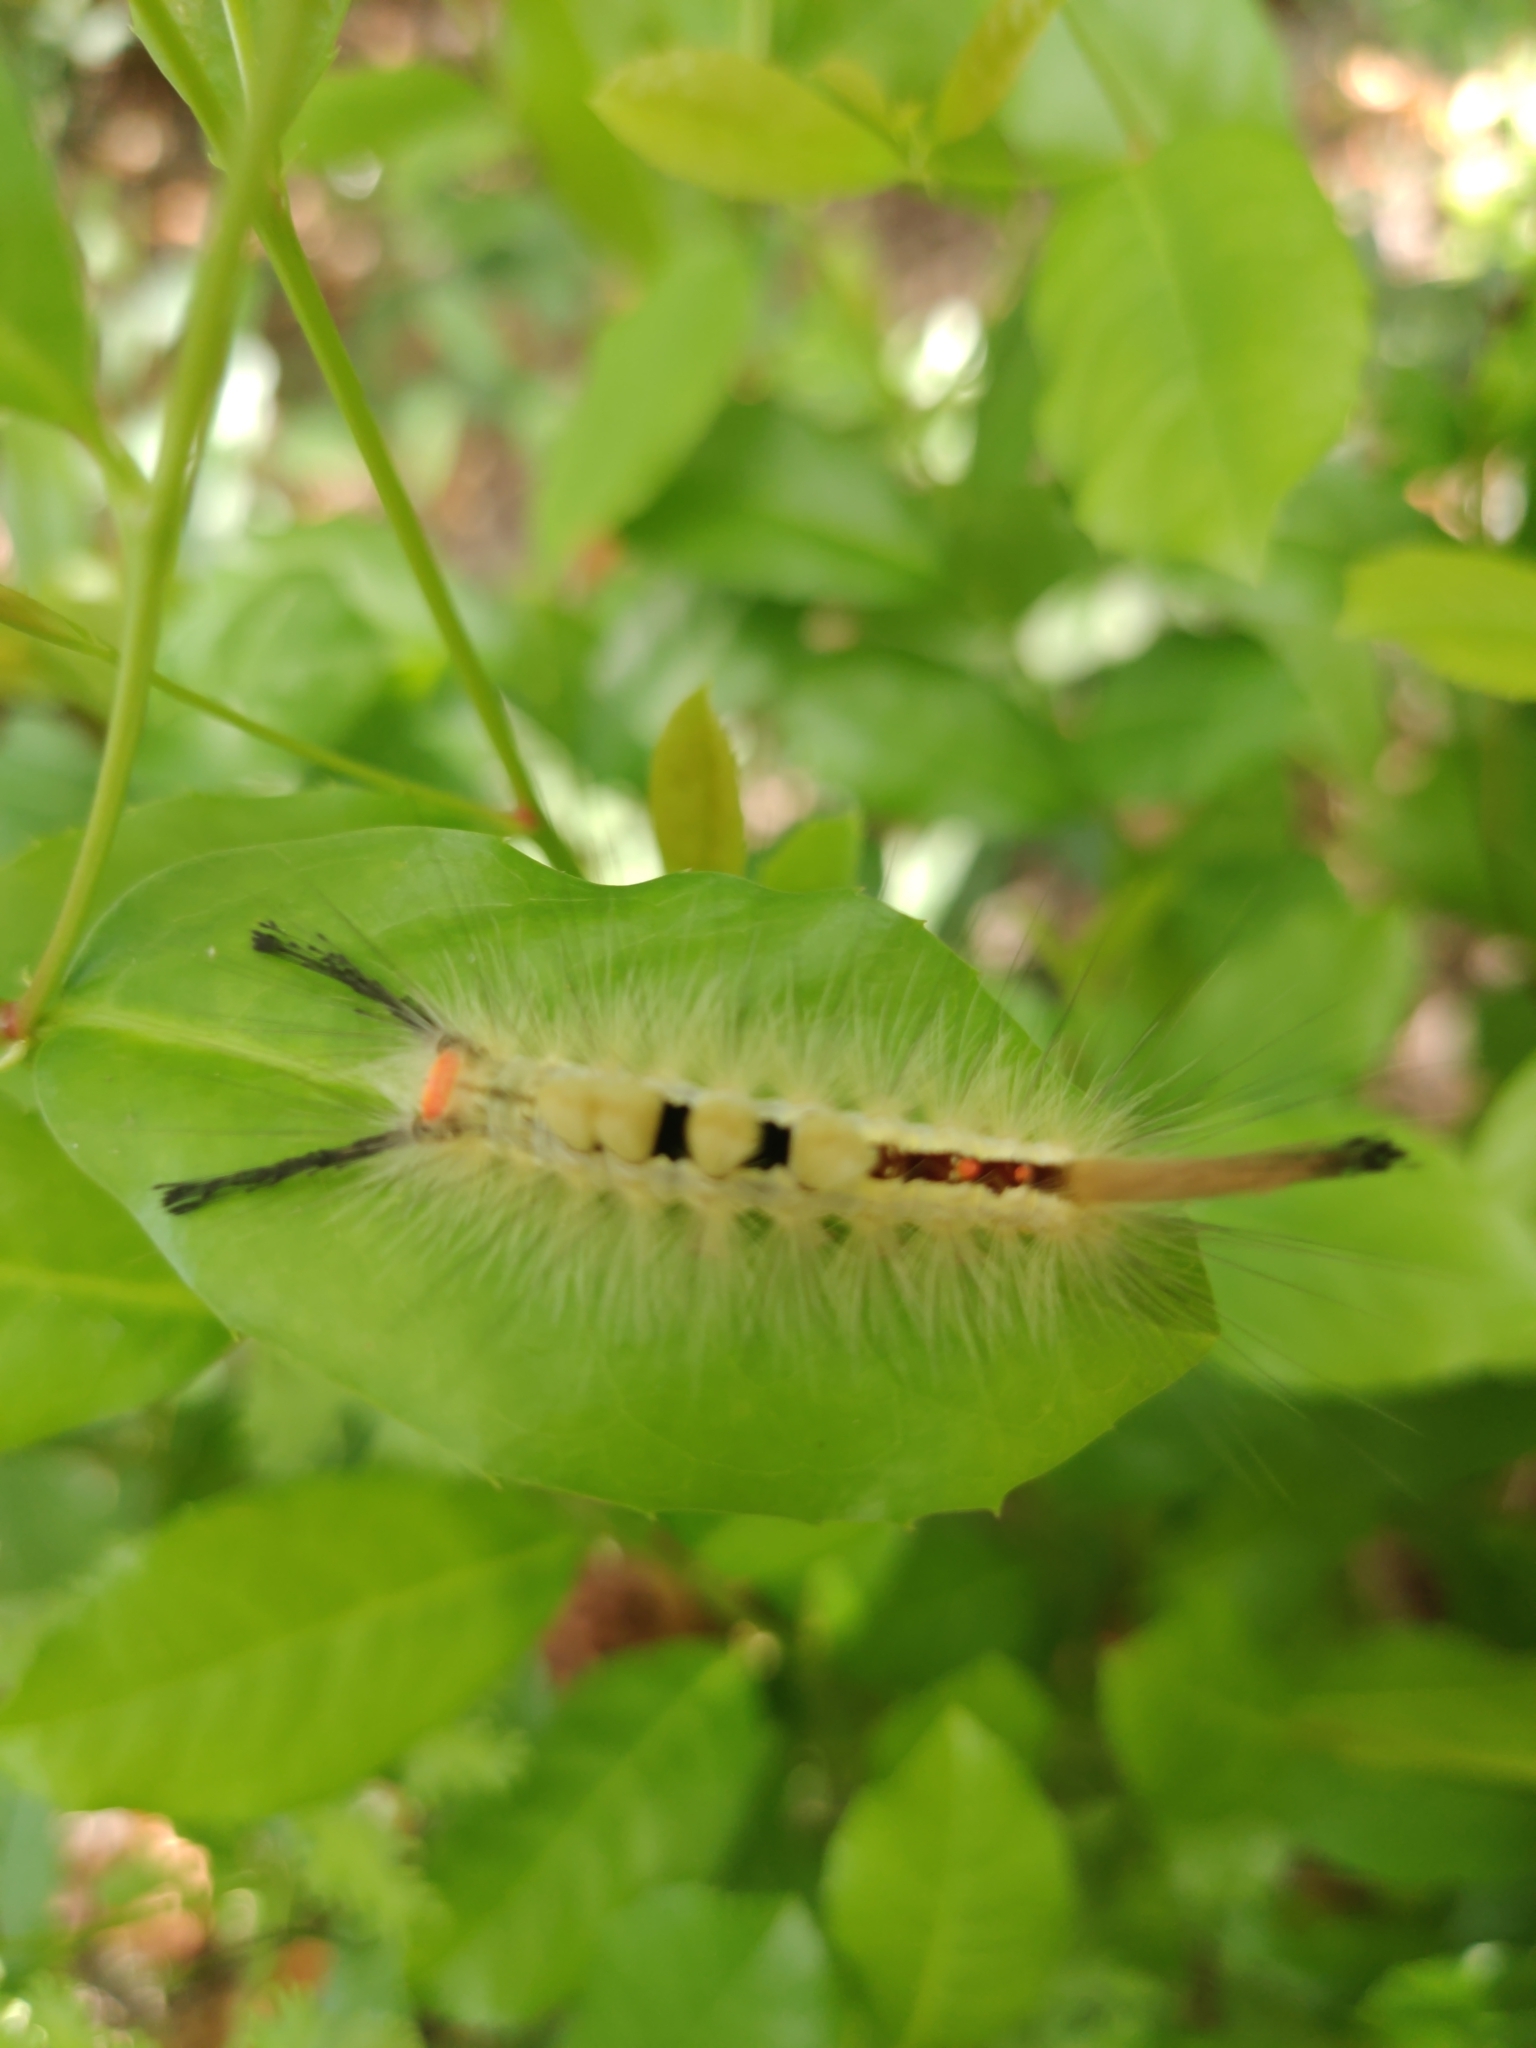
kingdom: Animalia
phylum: Arthropoda
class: Insecta
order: Lepidoptera
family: Erebidae
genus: Orgyia
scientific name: Orgyia leucostigma
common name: White-marked tussock moth
